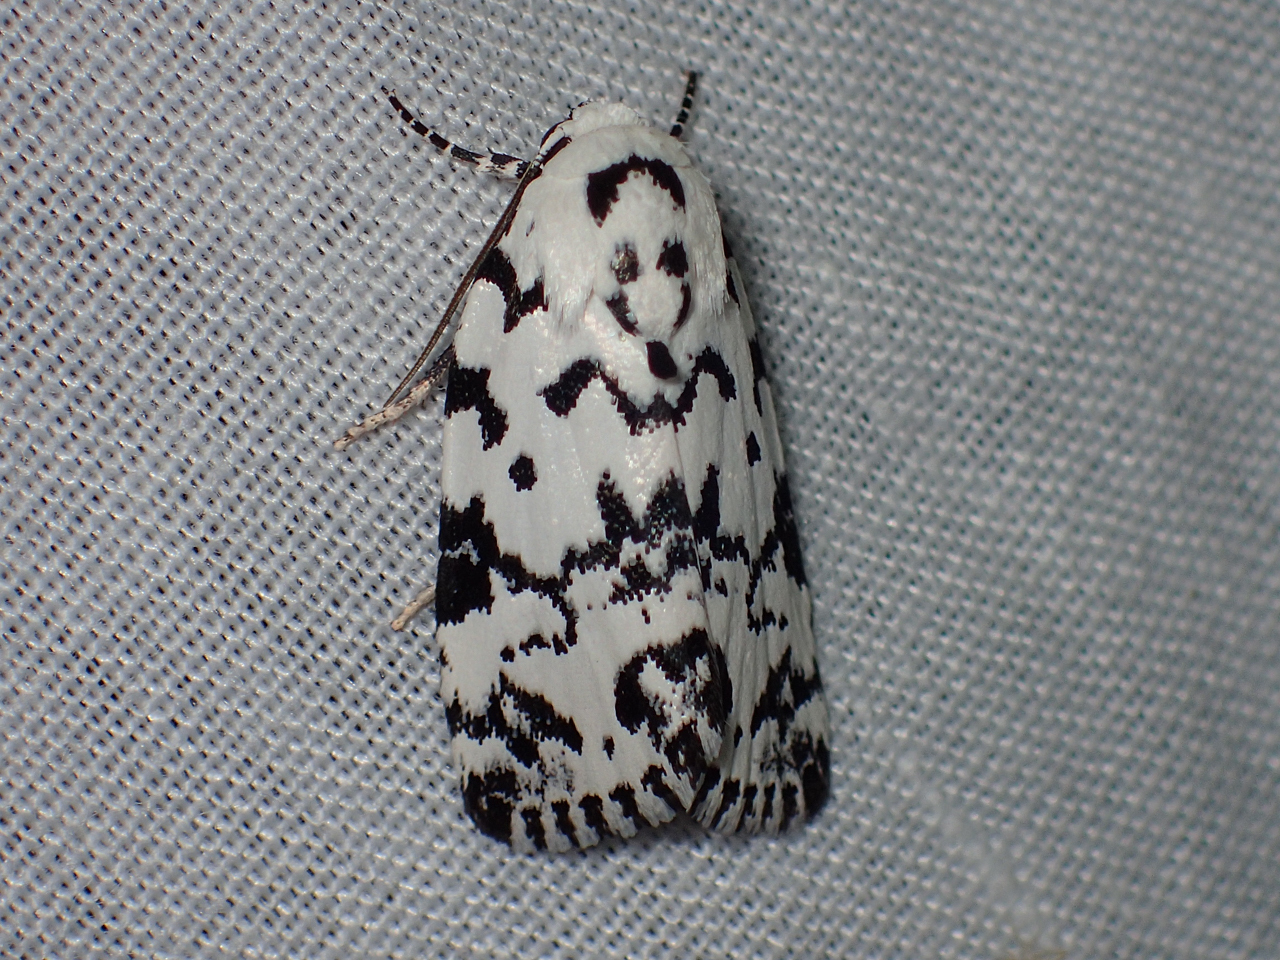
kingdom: Animalia
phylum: Arthropoda
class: Insecta
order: Lepidoptera
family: Noctuidae
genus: Polygrammate
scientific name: Polygrammate hebraeicum
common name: Hebrew moth
